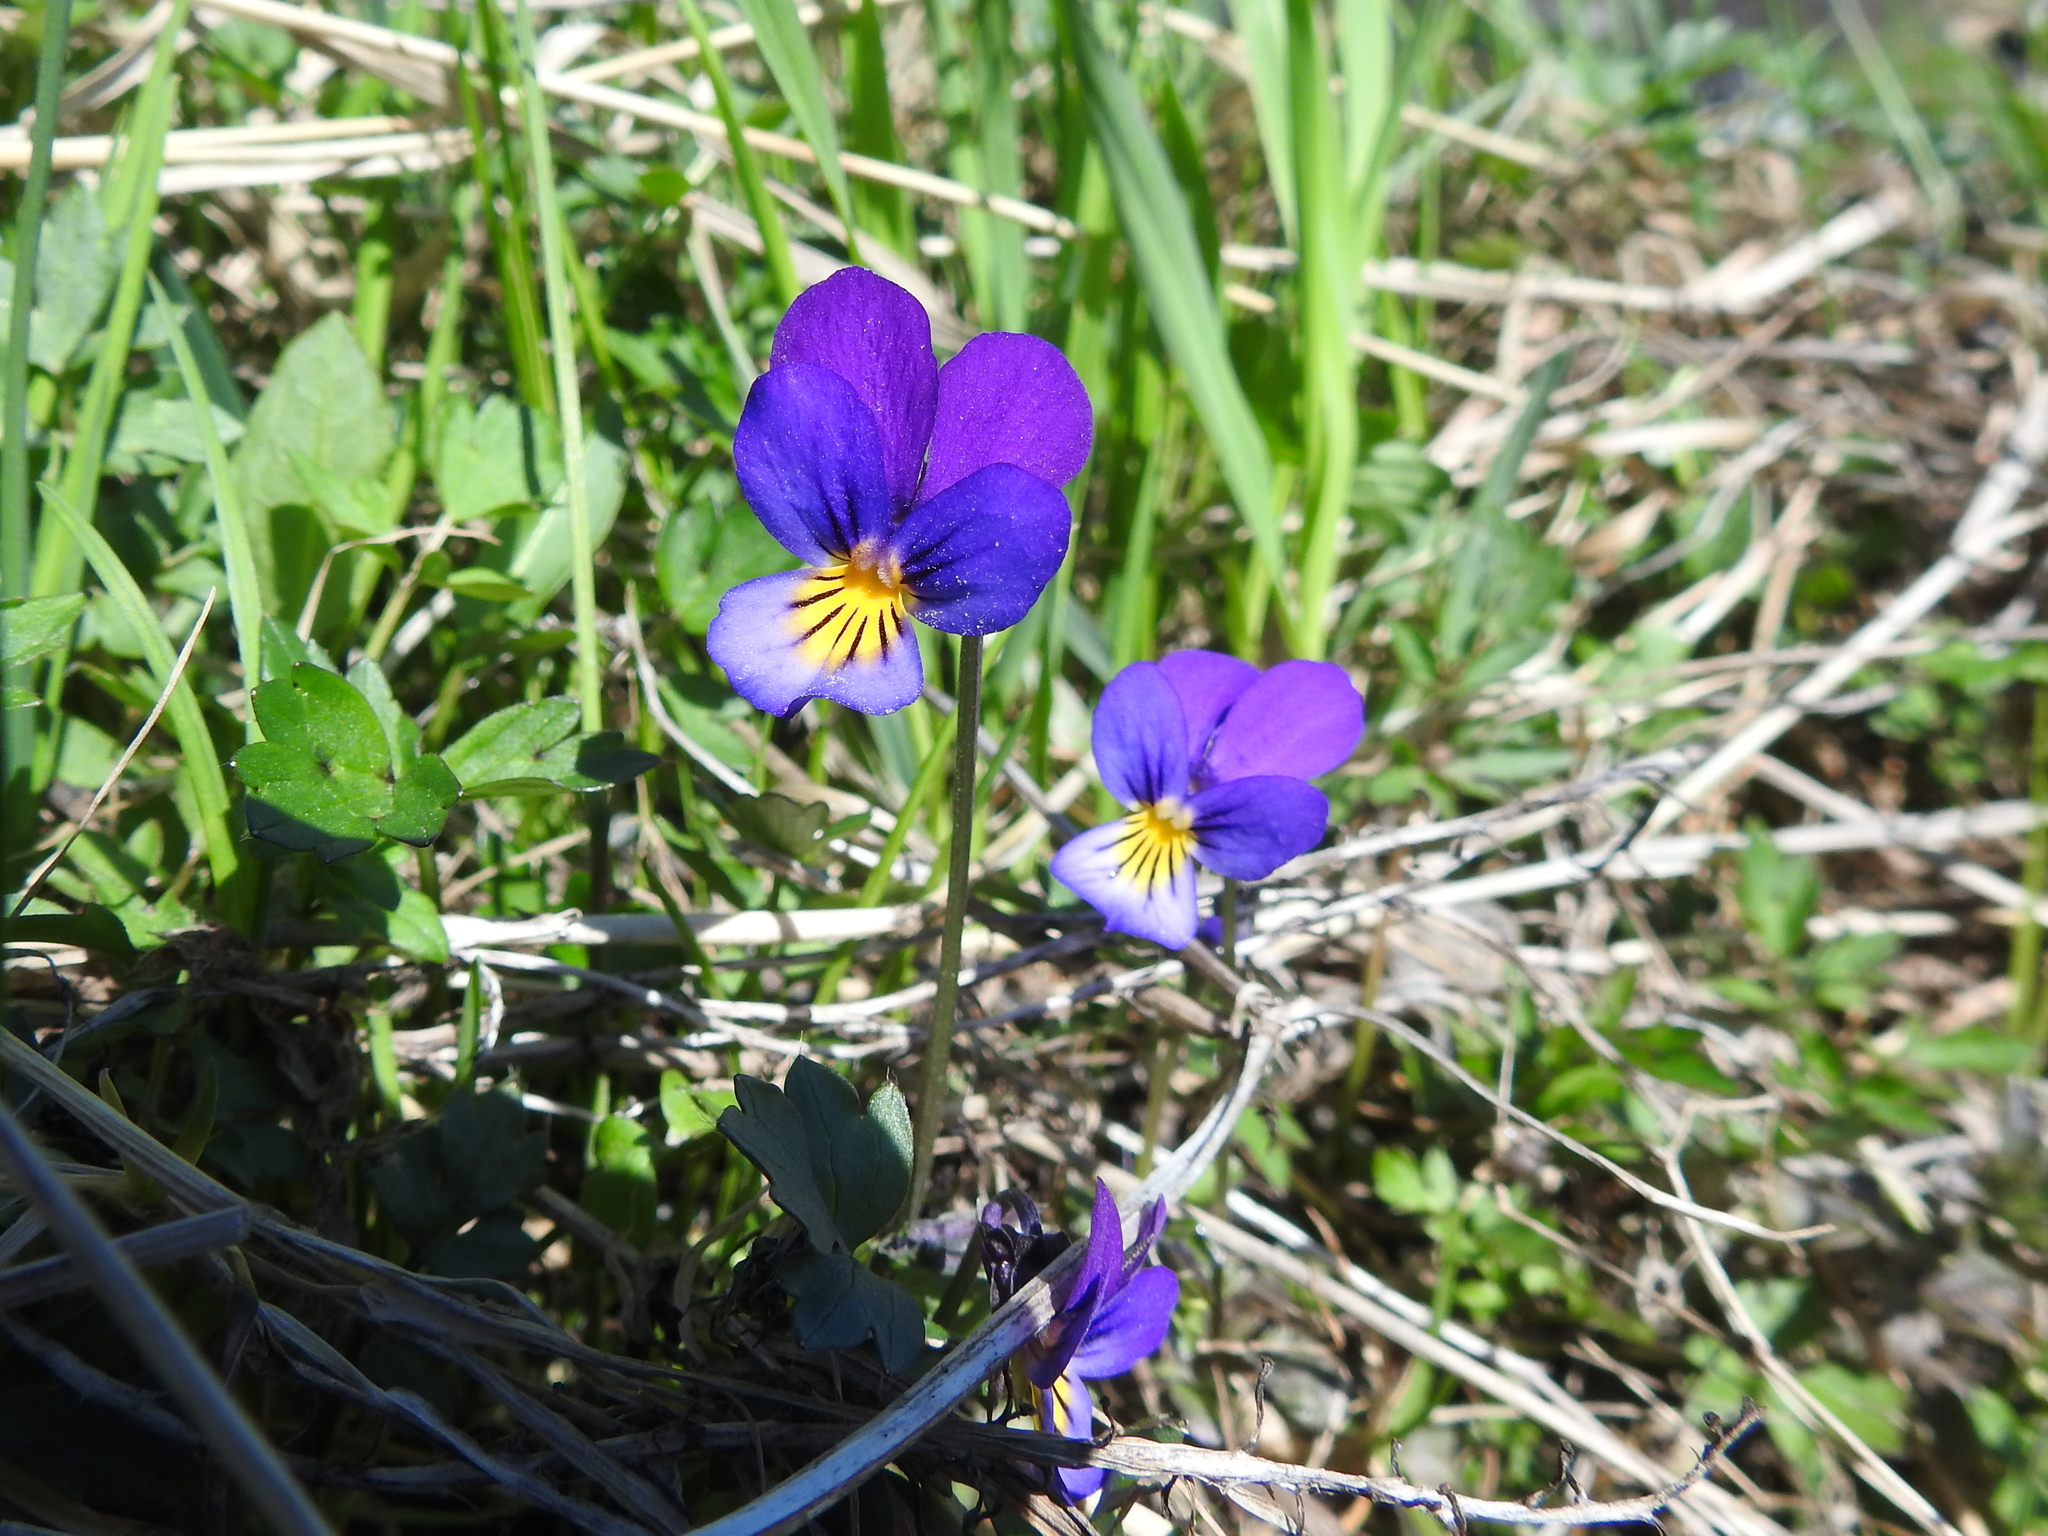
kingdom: Plantae
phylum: Tracheophyta
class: Magnoliopsida
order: Malpighiales
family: Violaceae
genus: Viola
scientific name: Viola tricolor
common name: Pansy
